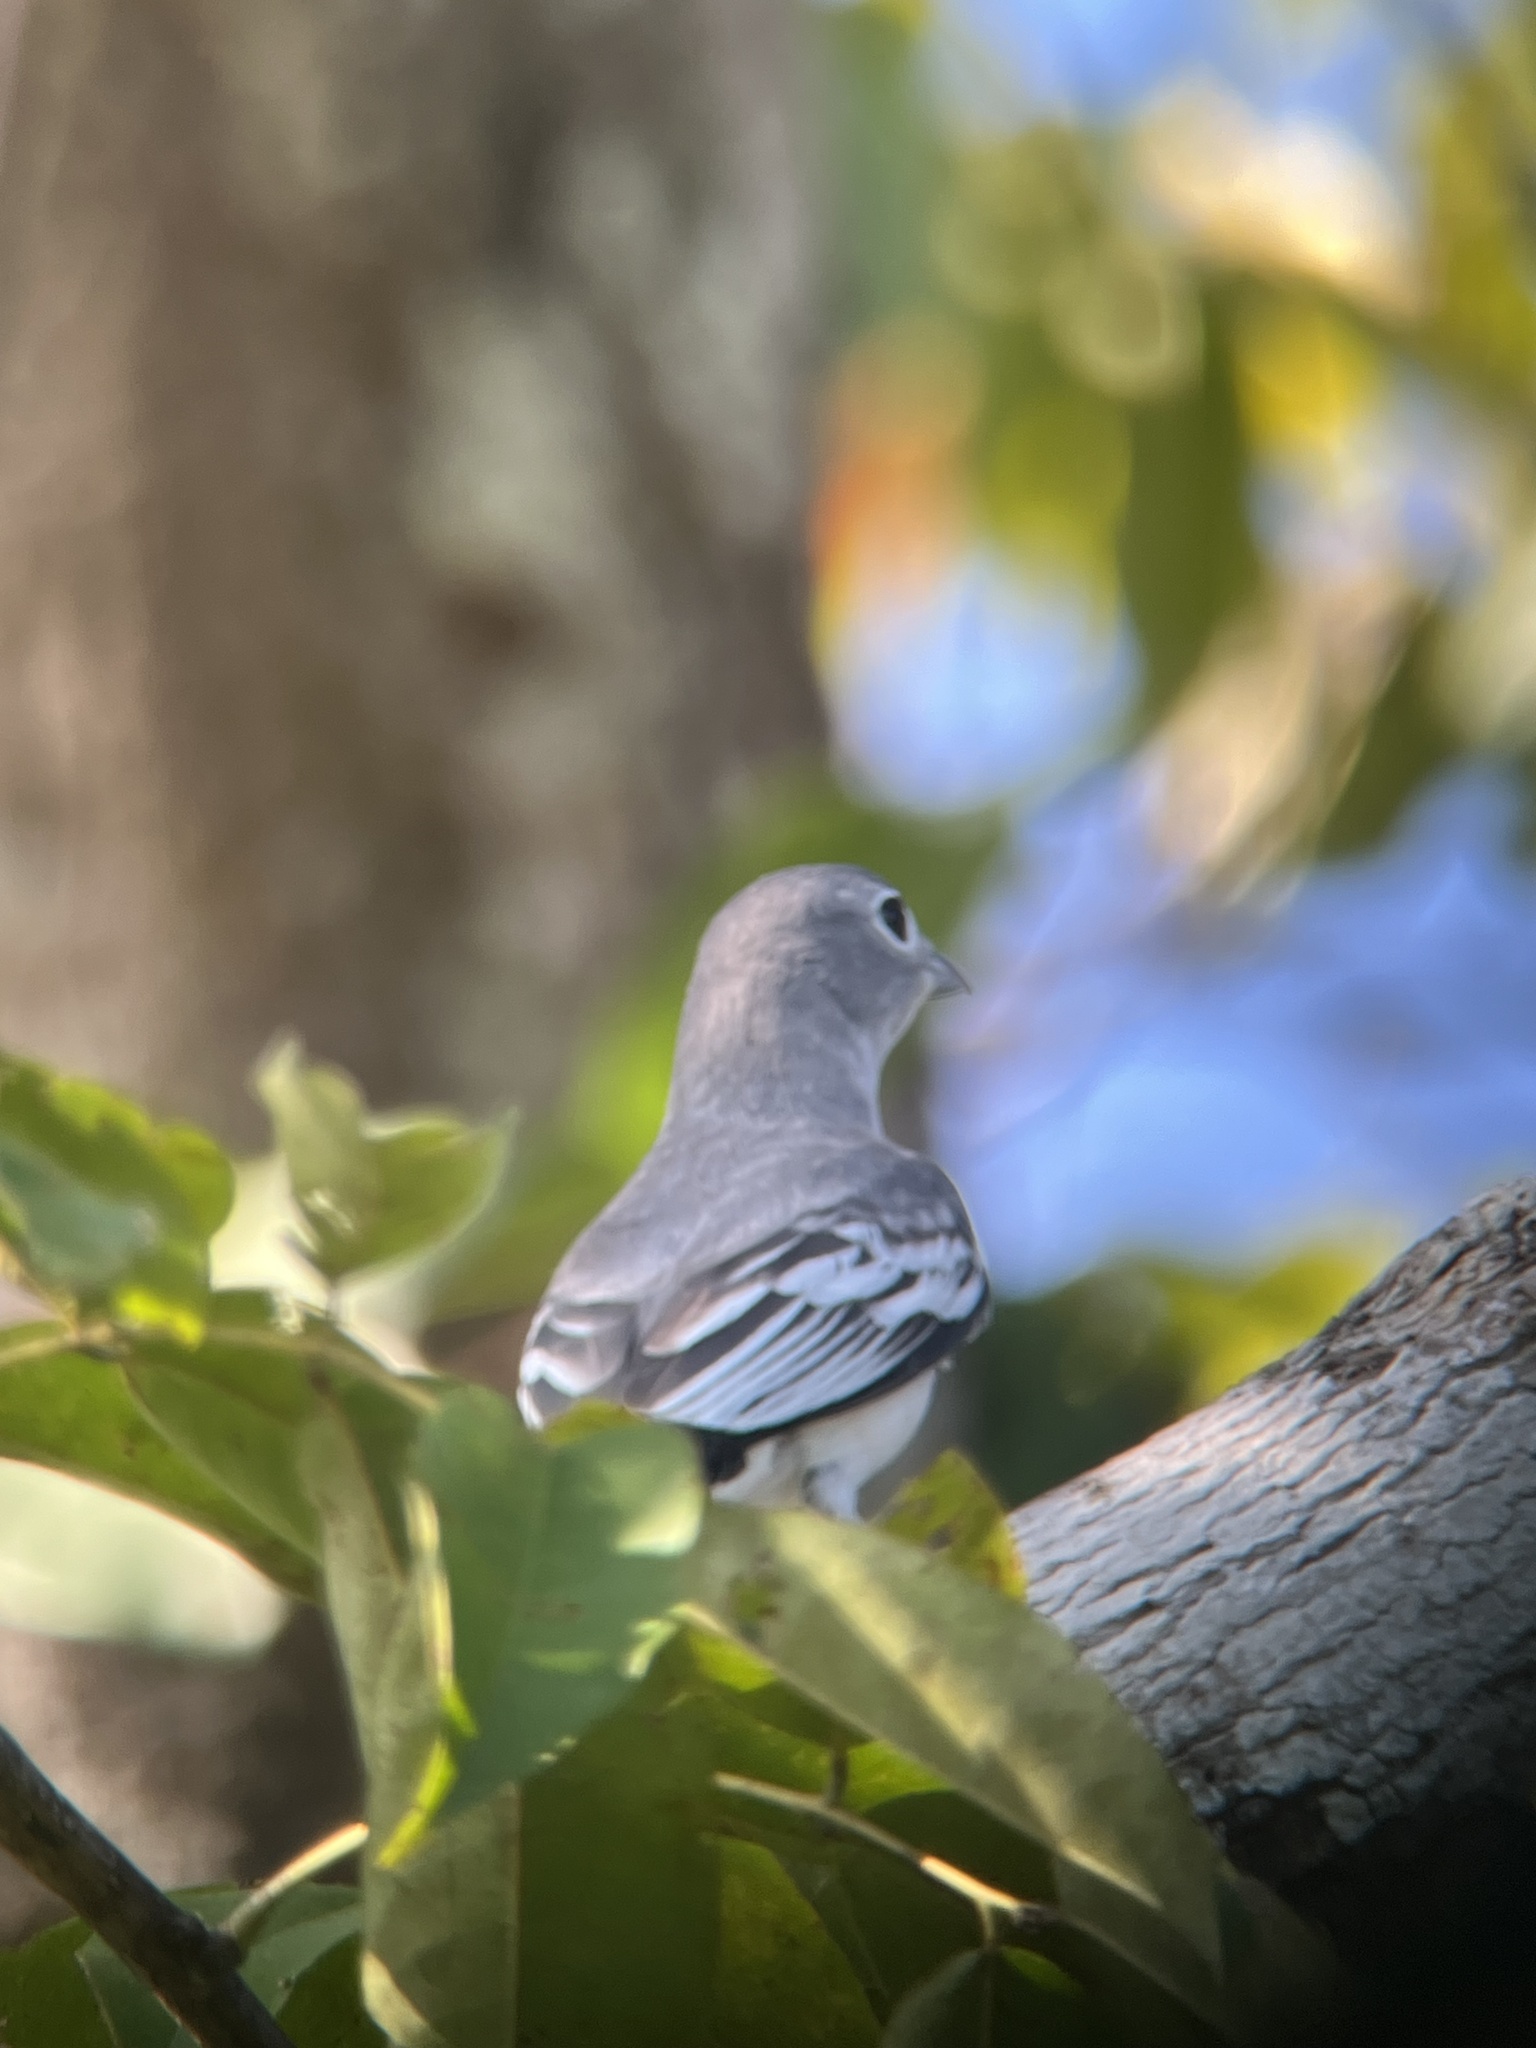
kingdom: Animalia
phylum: Chordata
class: Aves
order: Passeriformes
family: Cotingidae
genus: Carpodectes
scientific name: Carpodectes nitidus
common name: Snowy cotinga
